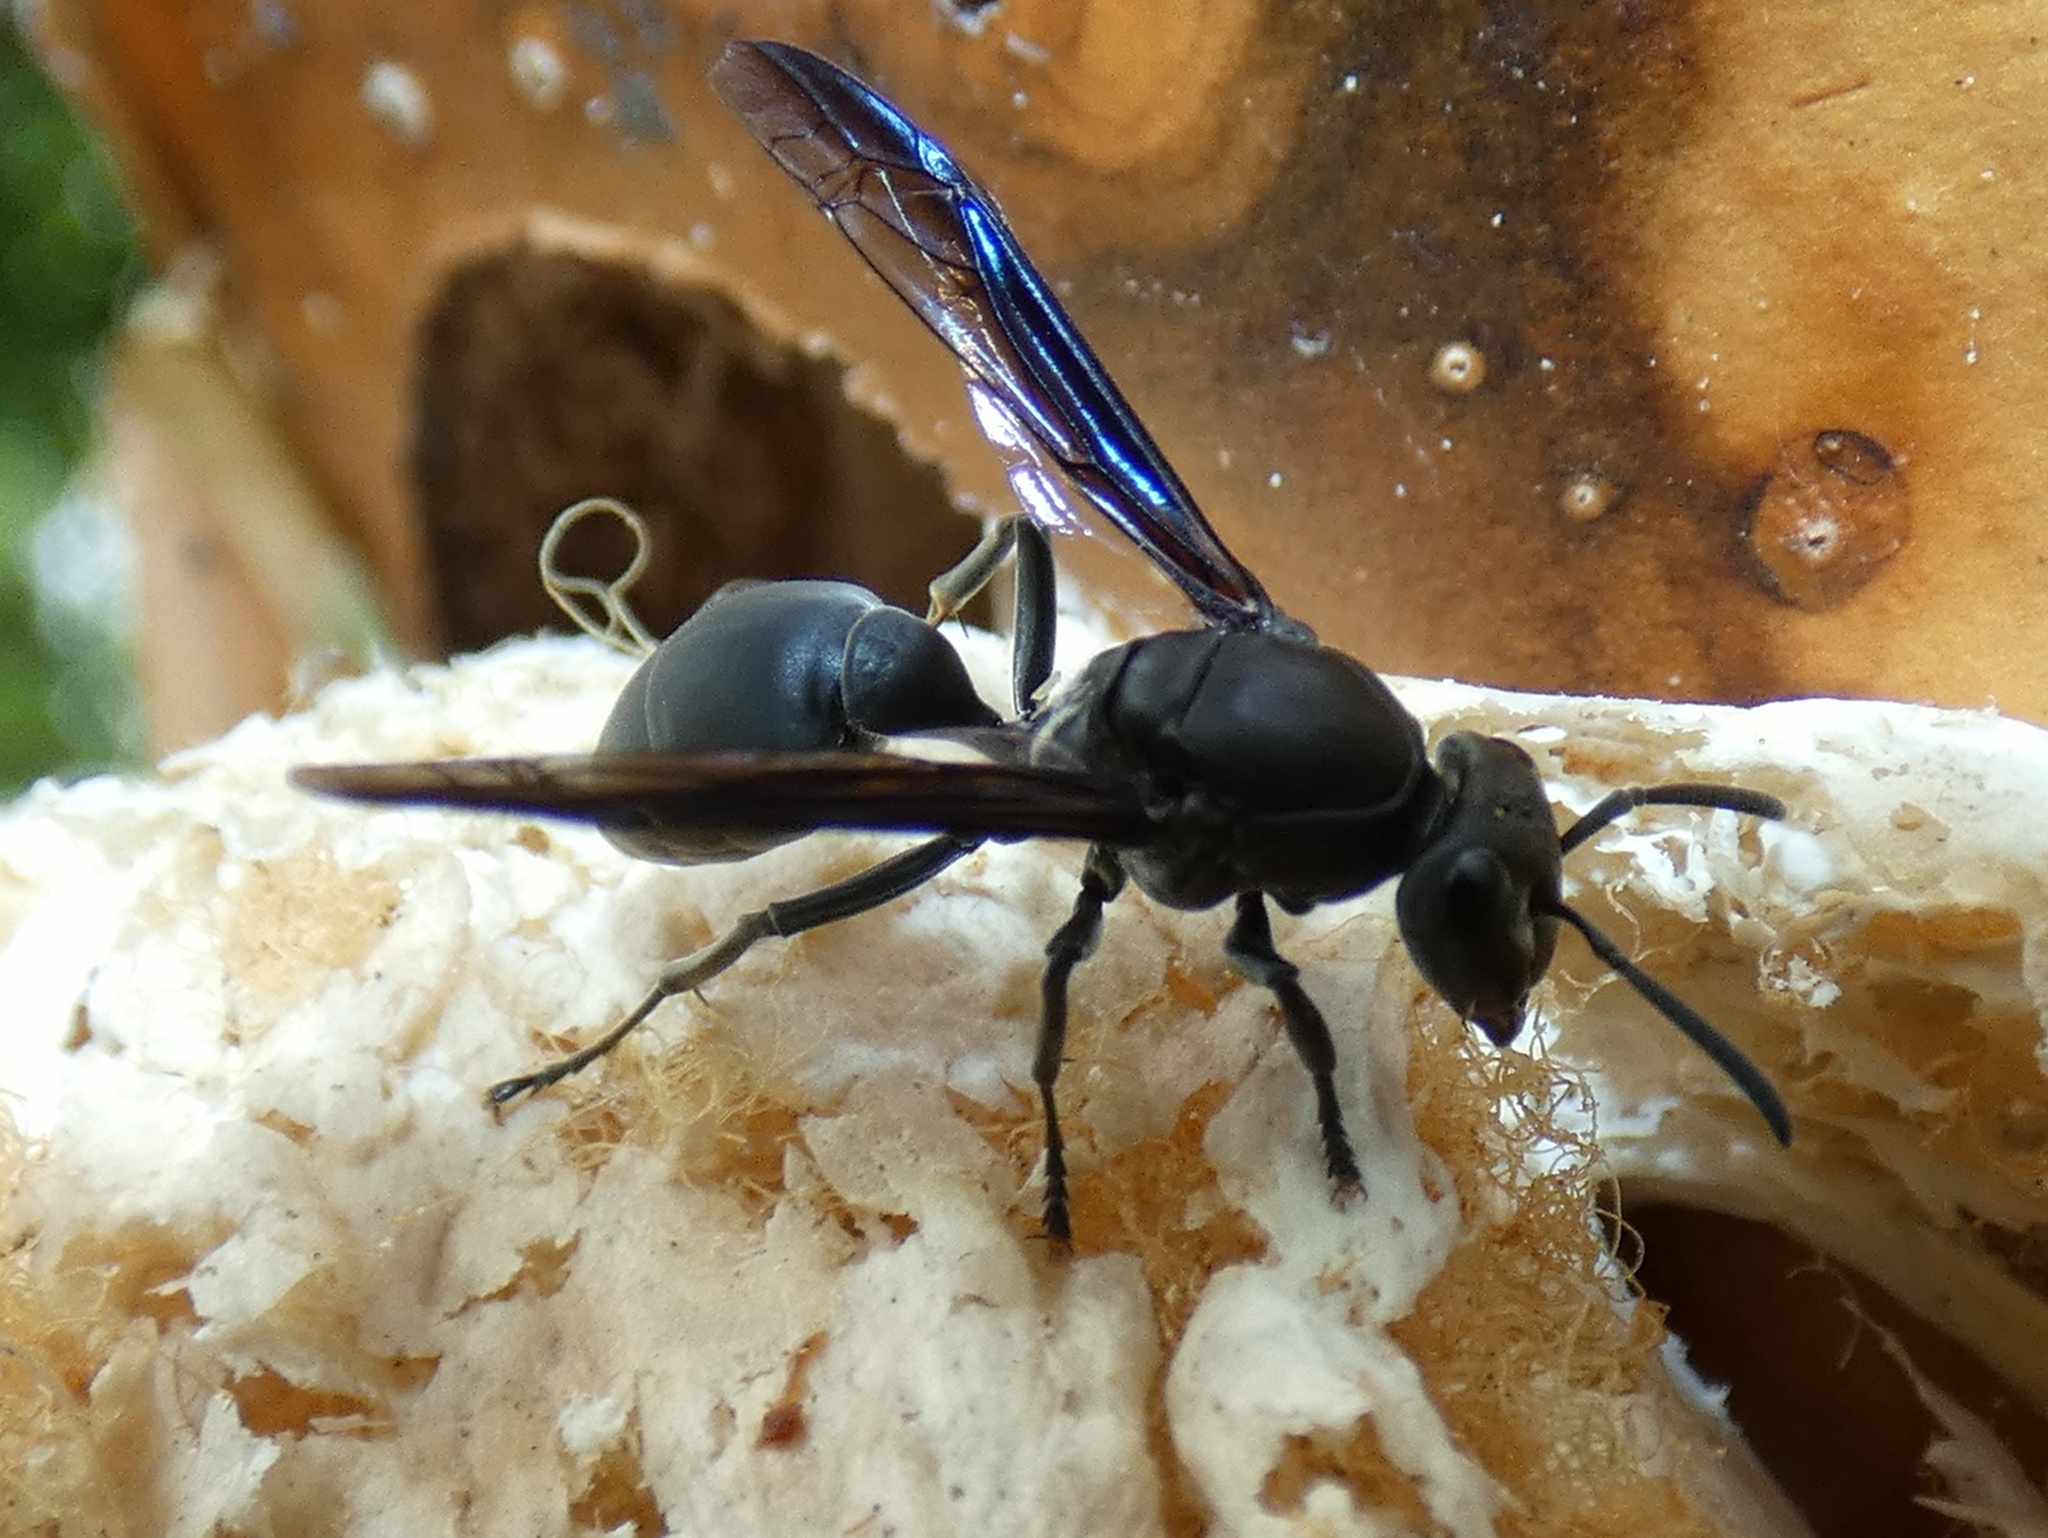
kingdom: Animalia
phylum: Arthropoda
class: Insecta
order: Hymenoptera
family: Eumenidae
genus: Polybia
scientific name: Polybia simillima
